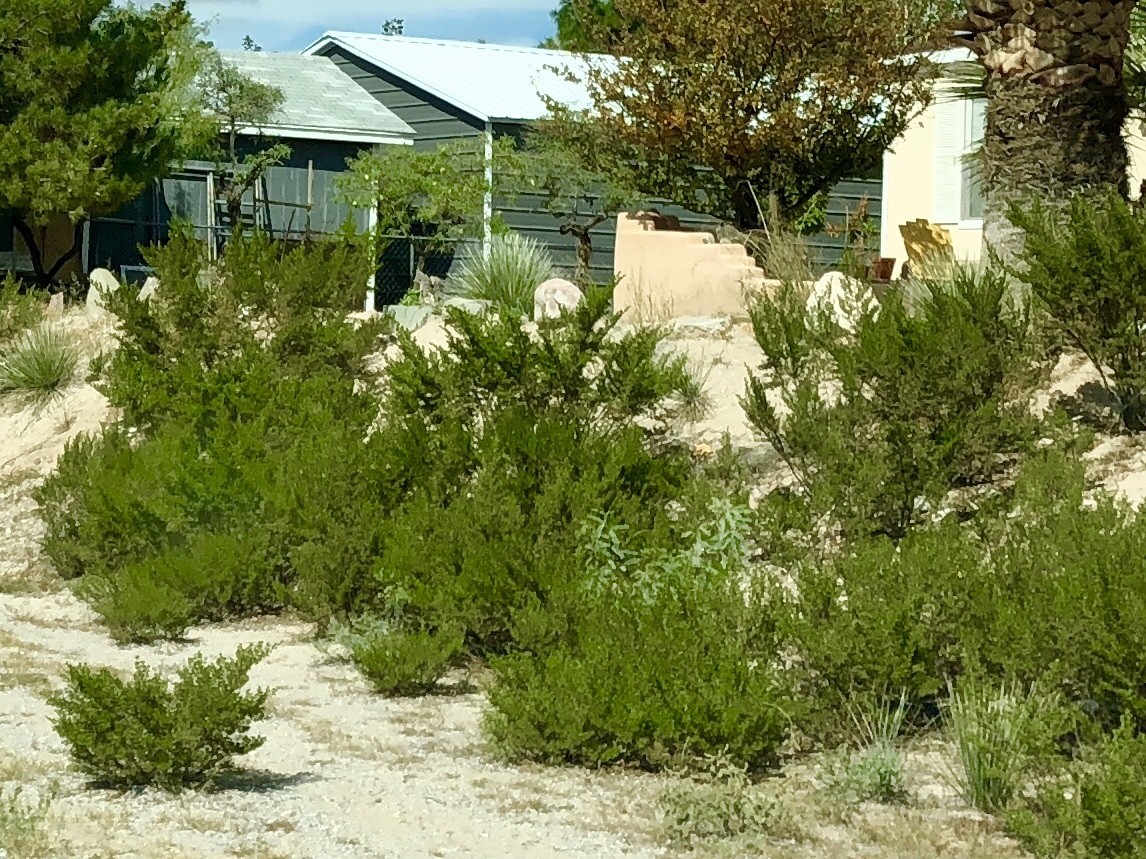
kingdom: Plantae
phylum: Tracheophyta
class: Magnoliopsida
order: Zygophyllales
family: Zygophyllaceae
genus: Larrea
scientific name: Larrea tridentata
